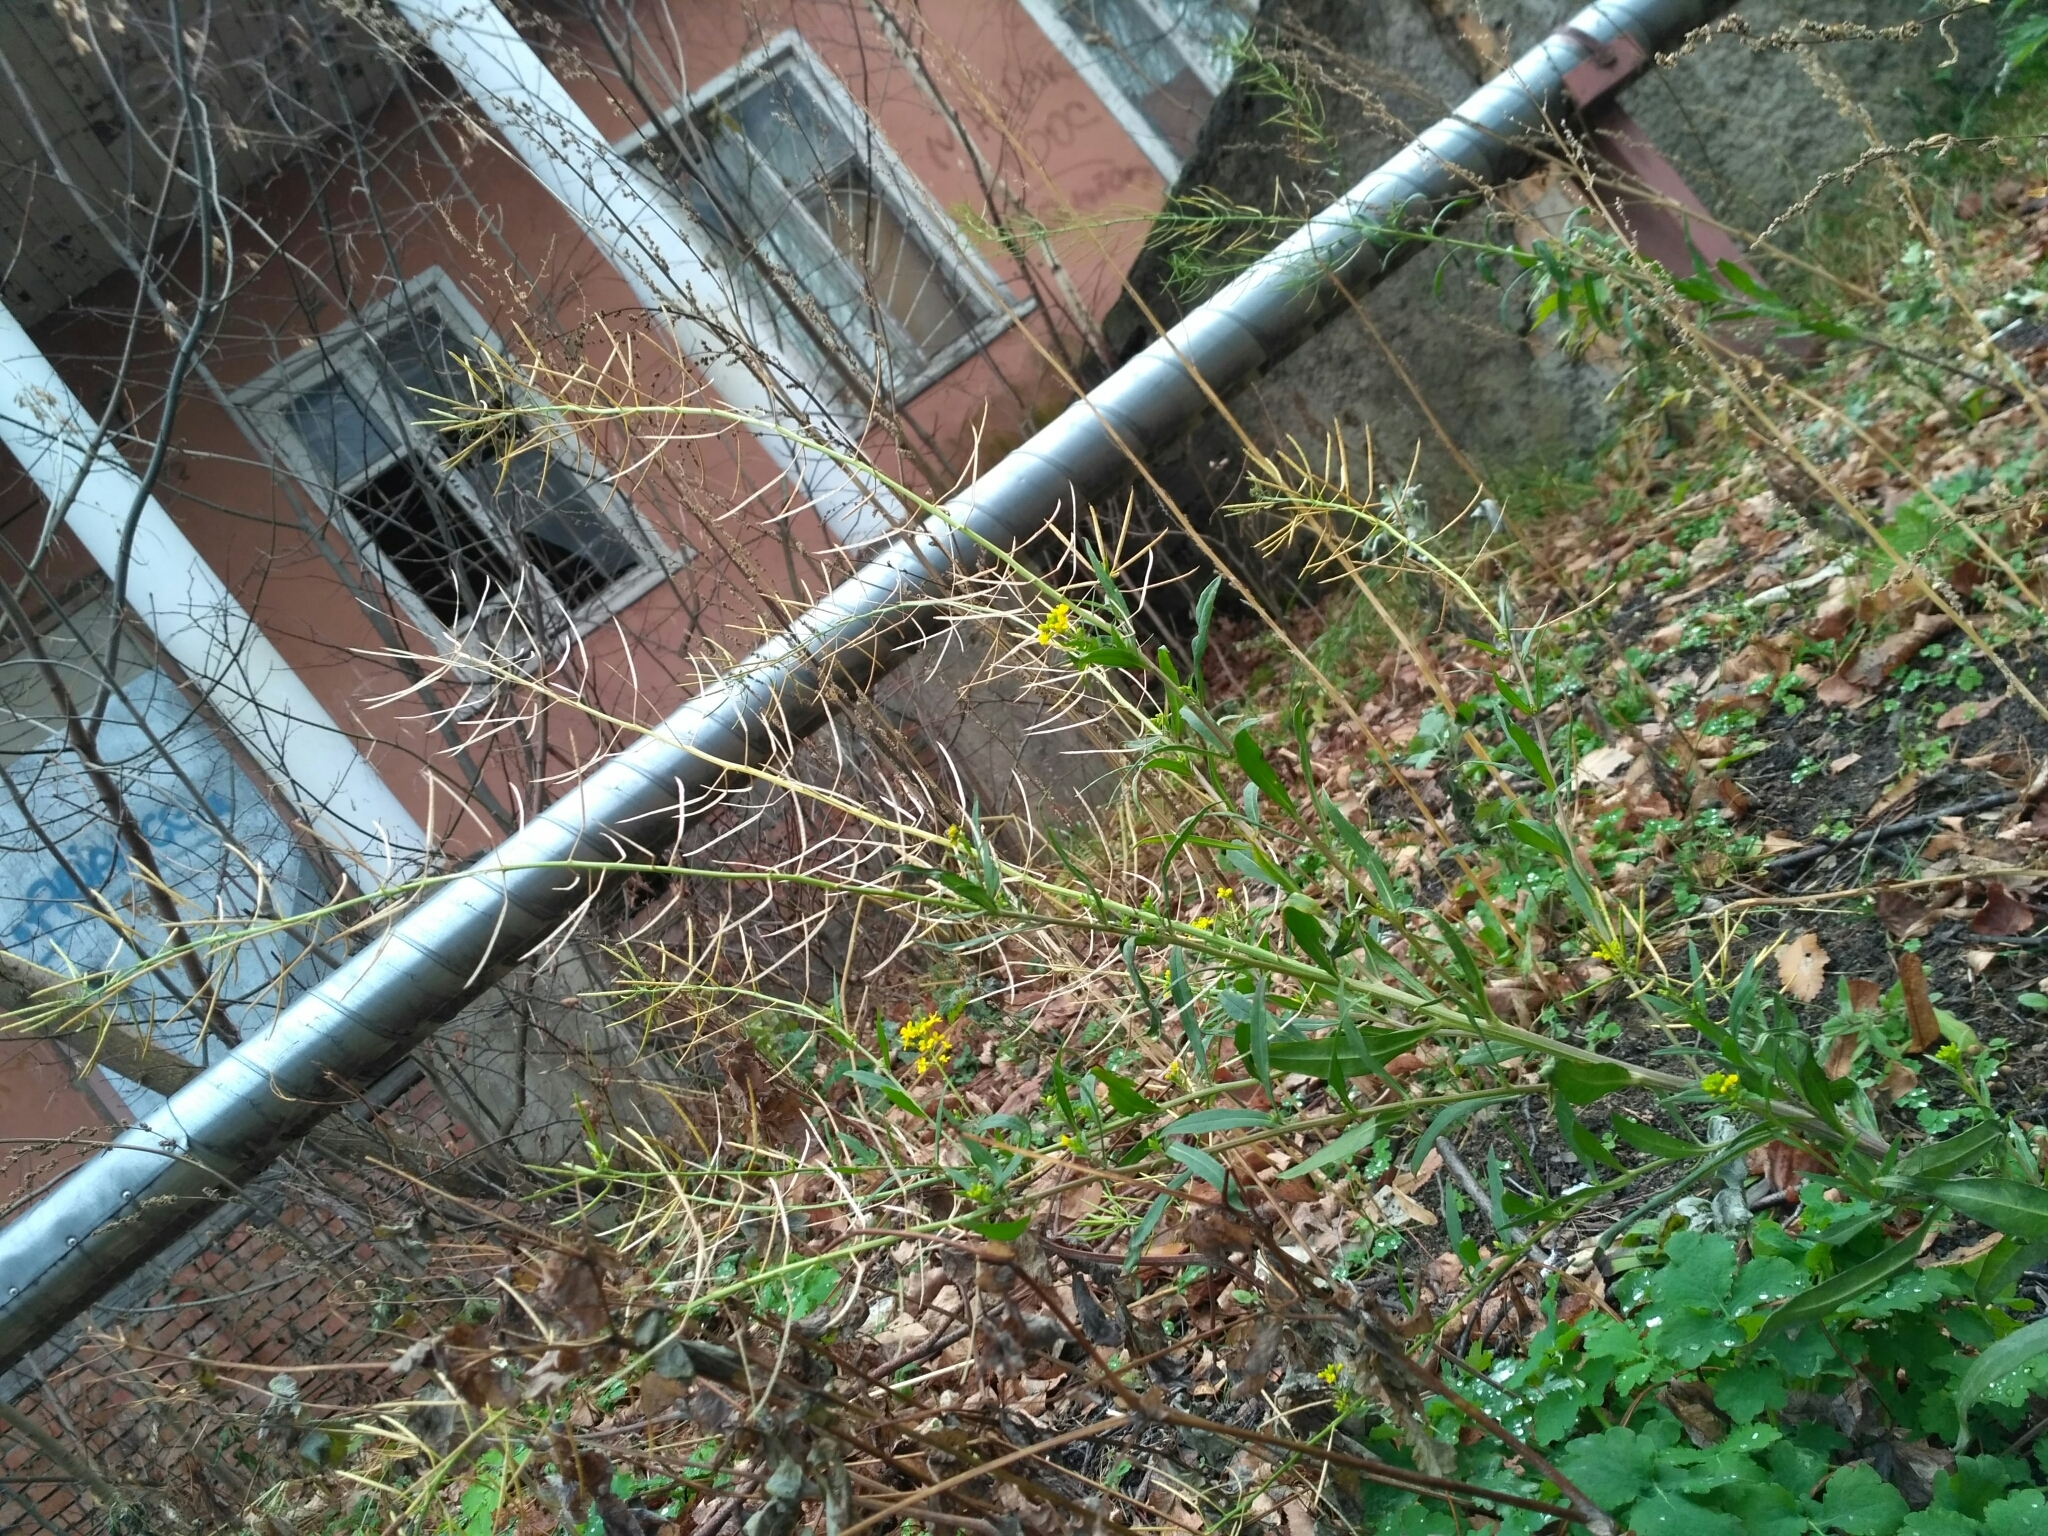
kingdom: Plantae
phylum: Tracheophyta
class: Magnoliopsida
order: Brassicales
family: Brassicaceae
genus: Erysimum
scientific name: Erysimum cheiranthoides
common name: Treacle mustard
